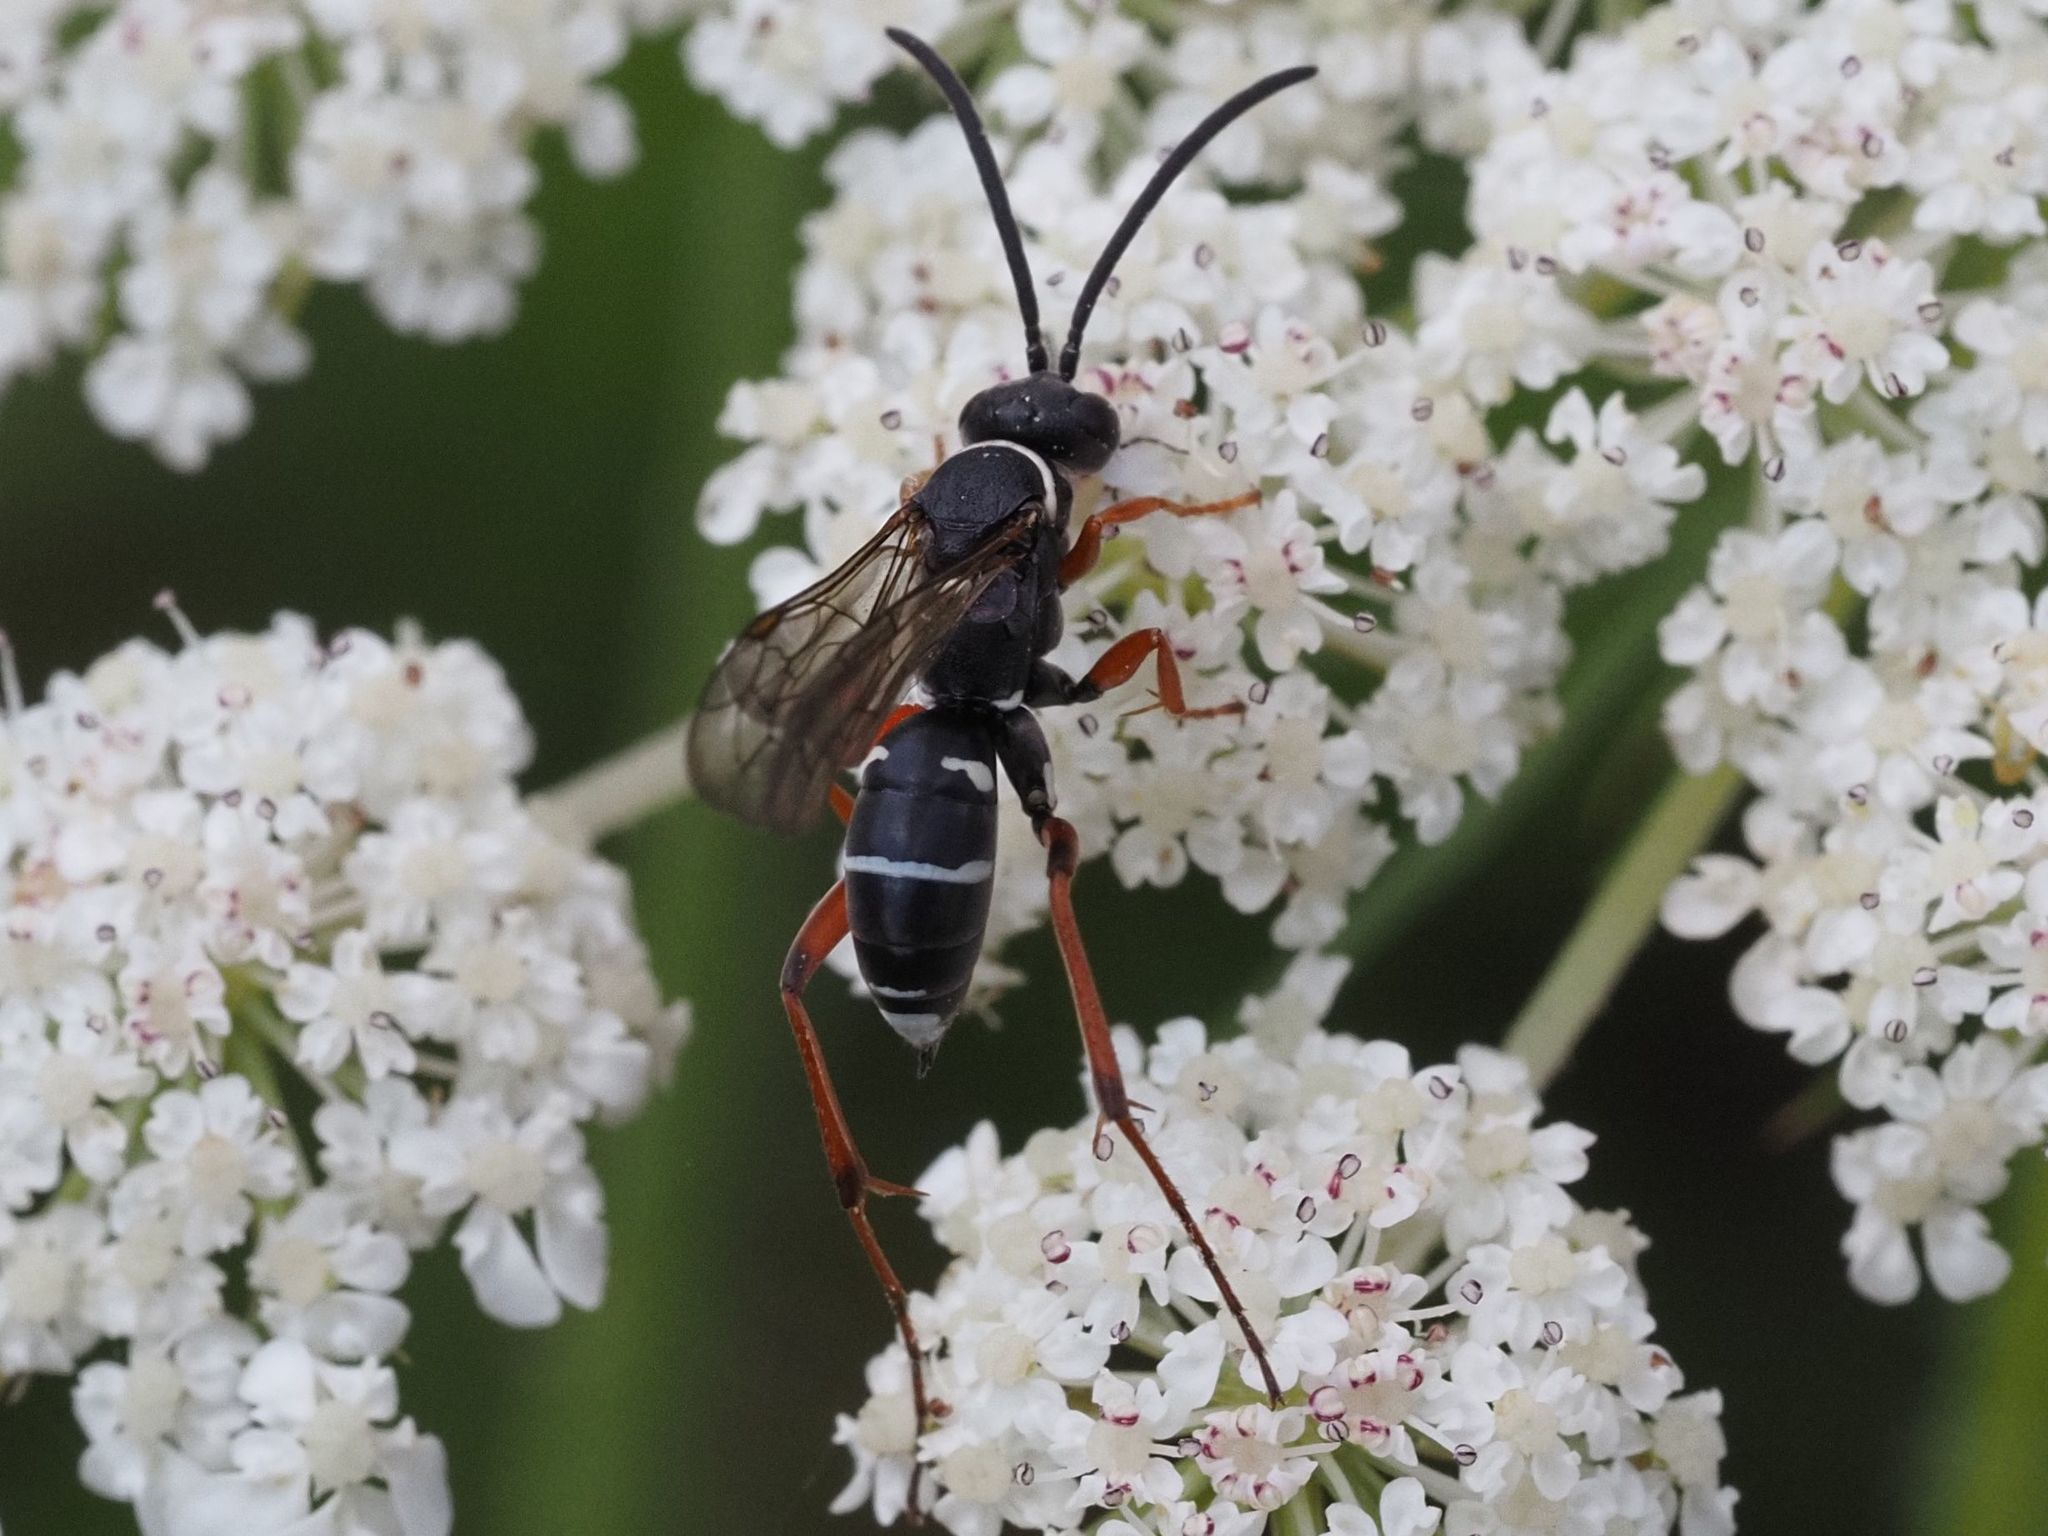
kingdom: Animalia
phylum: Arthropoda
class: Insecta
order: Hymenoptera
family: Pompilidae
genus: Ceropales
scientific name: Ceropales maculata
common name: Spider wasp
